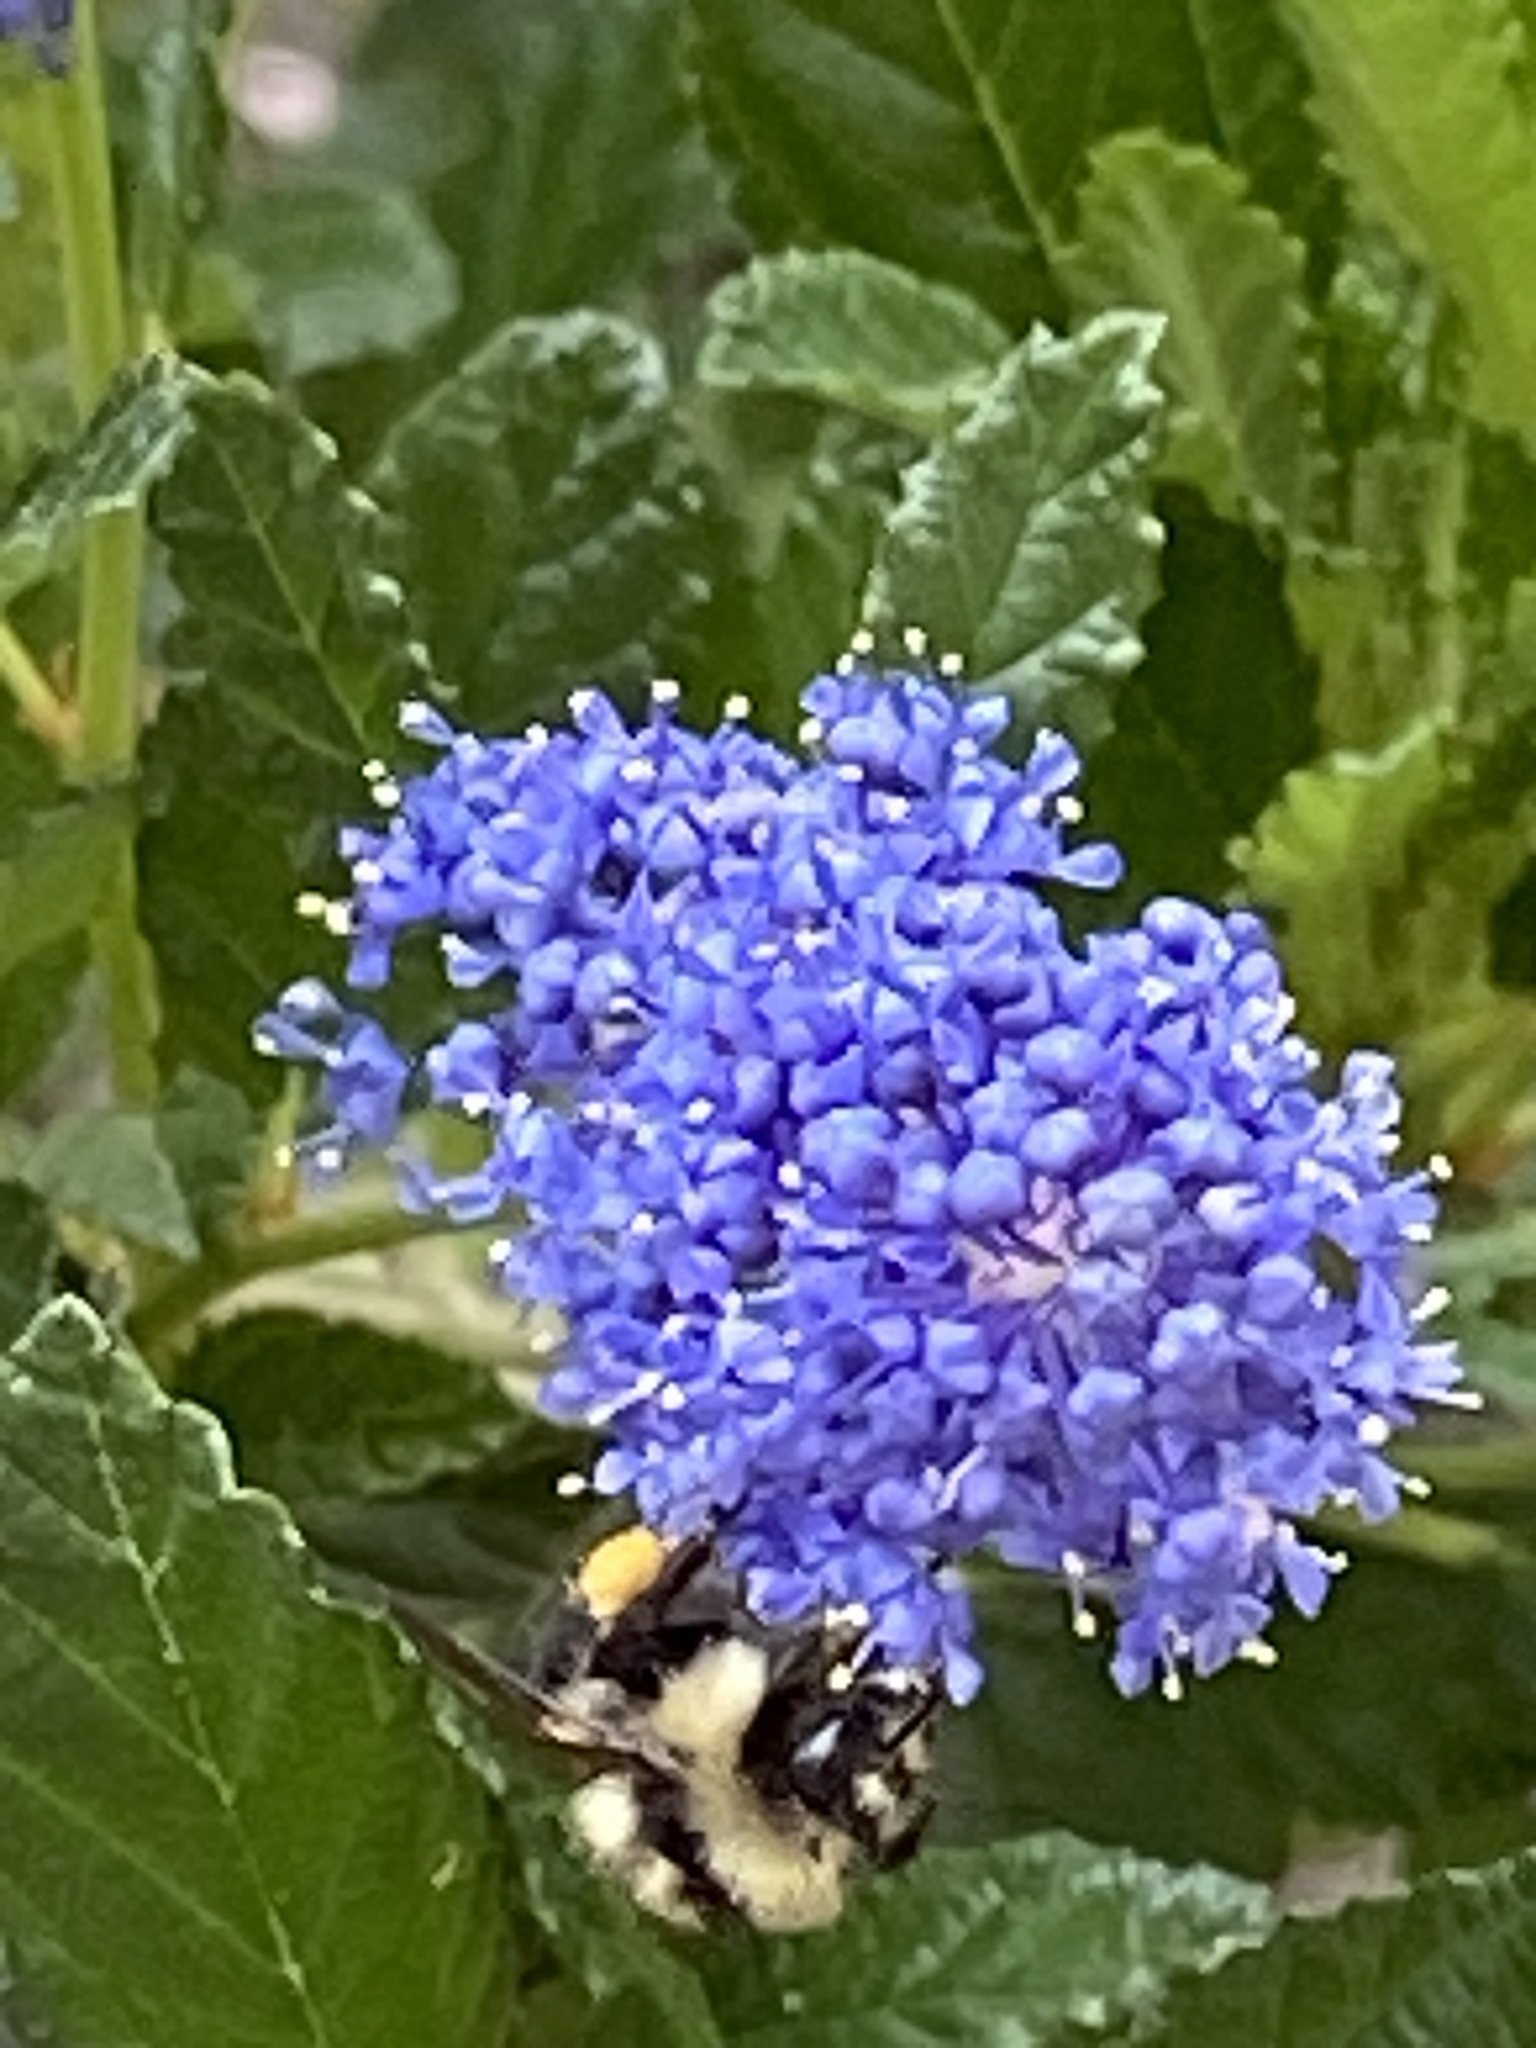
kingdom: Animalia
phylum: Arthropoda
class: Insecta
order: Hymenoptera
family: Apidae
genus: Bombus
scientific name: Bombus melanopygus
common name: Black tail bumble bee
